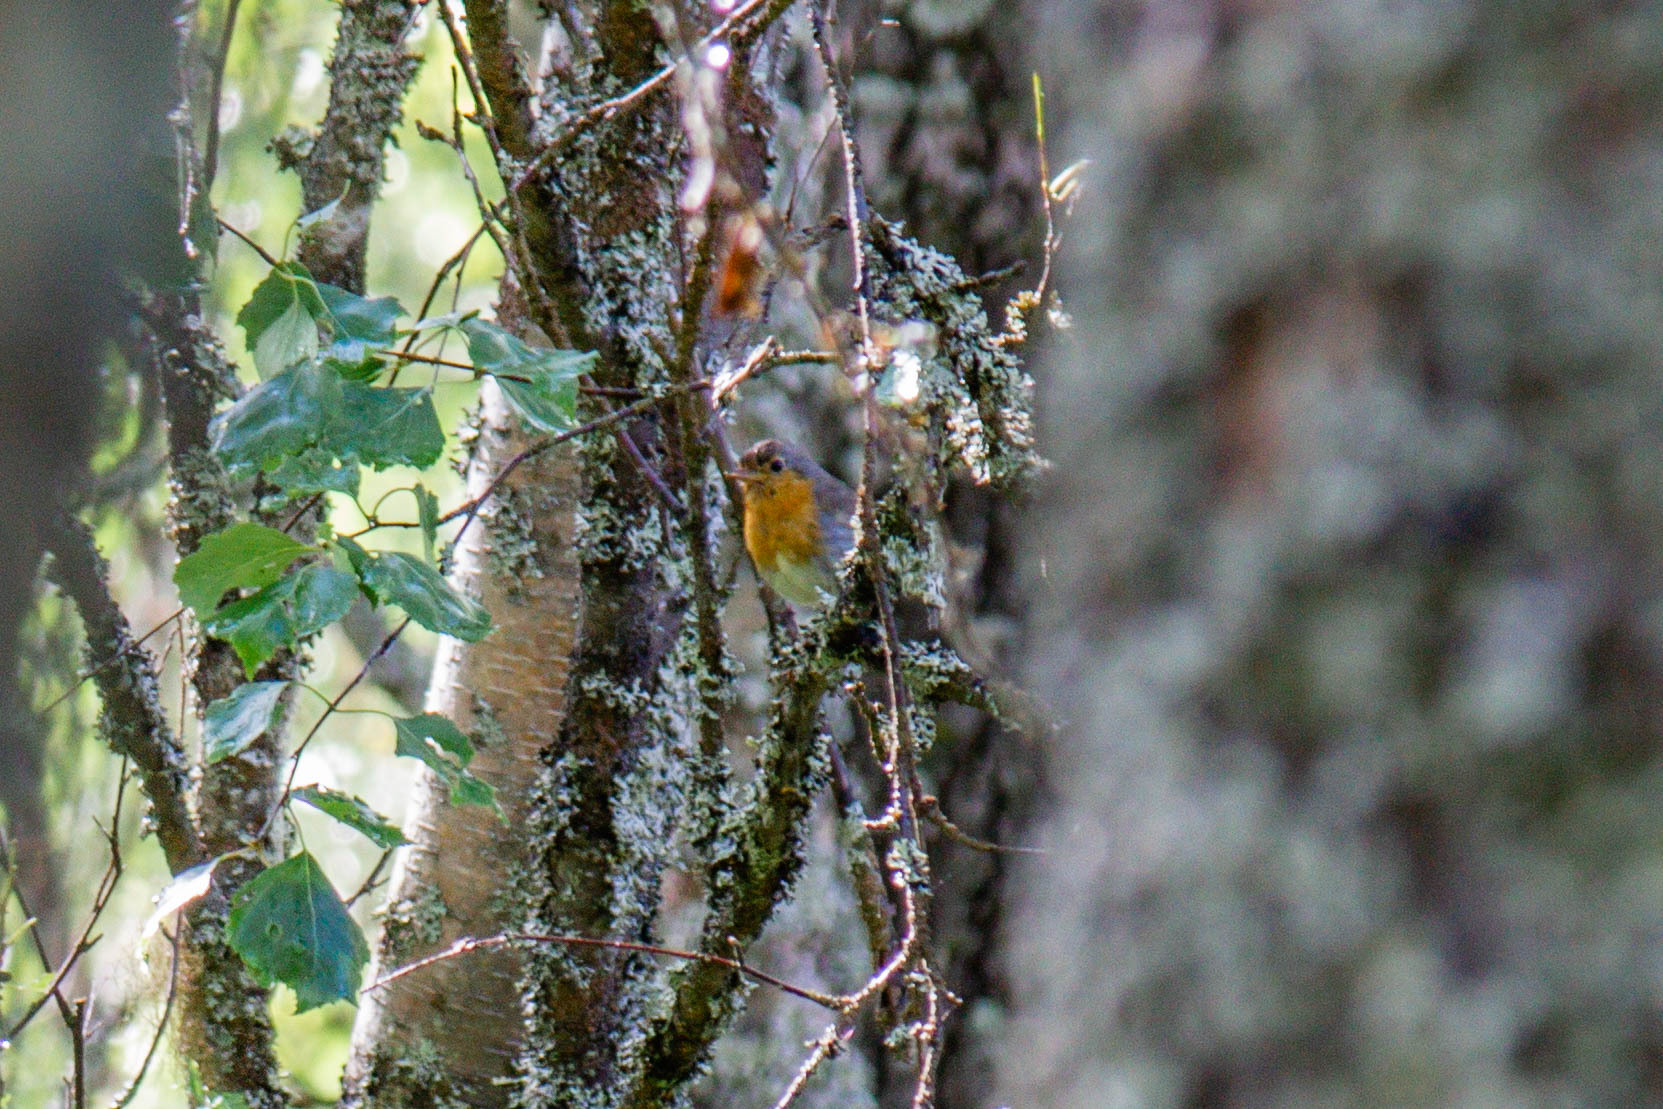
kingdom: Animalia
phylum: Chordata
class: Aves
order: Passeriformes
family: Muscicapidae
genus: Erithacus
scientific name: Erithacus rubecula
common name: European robin
